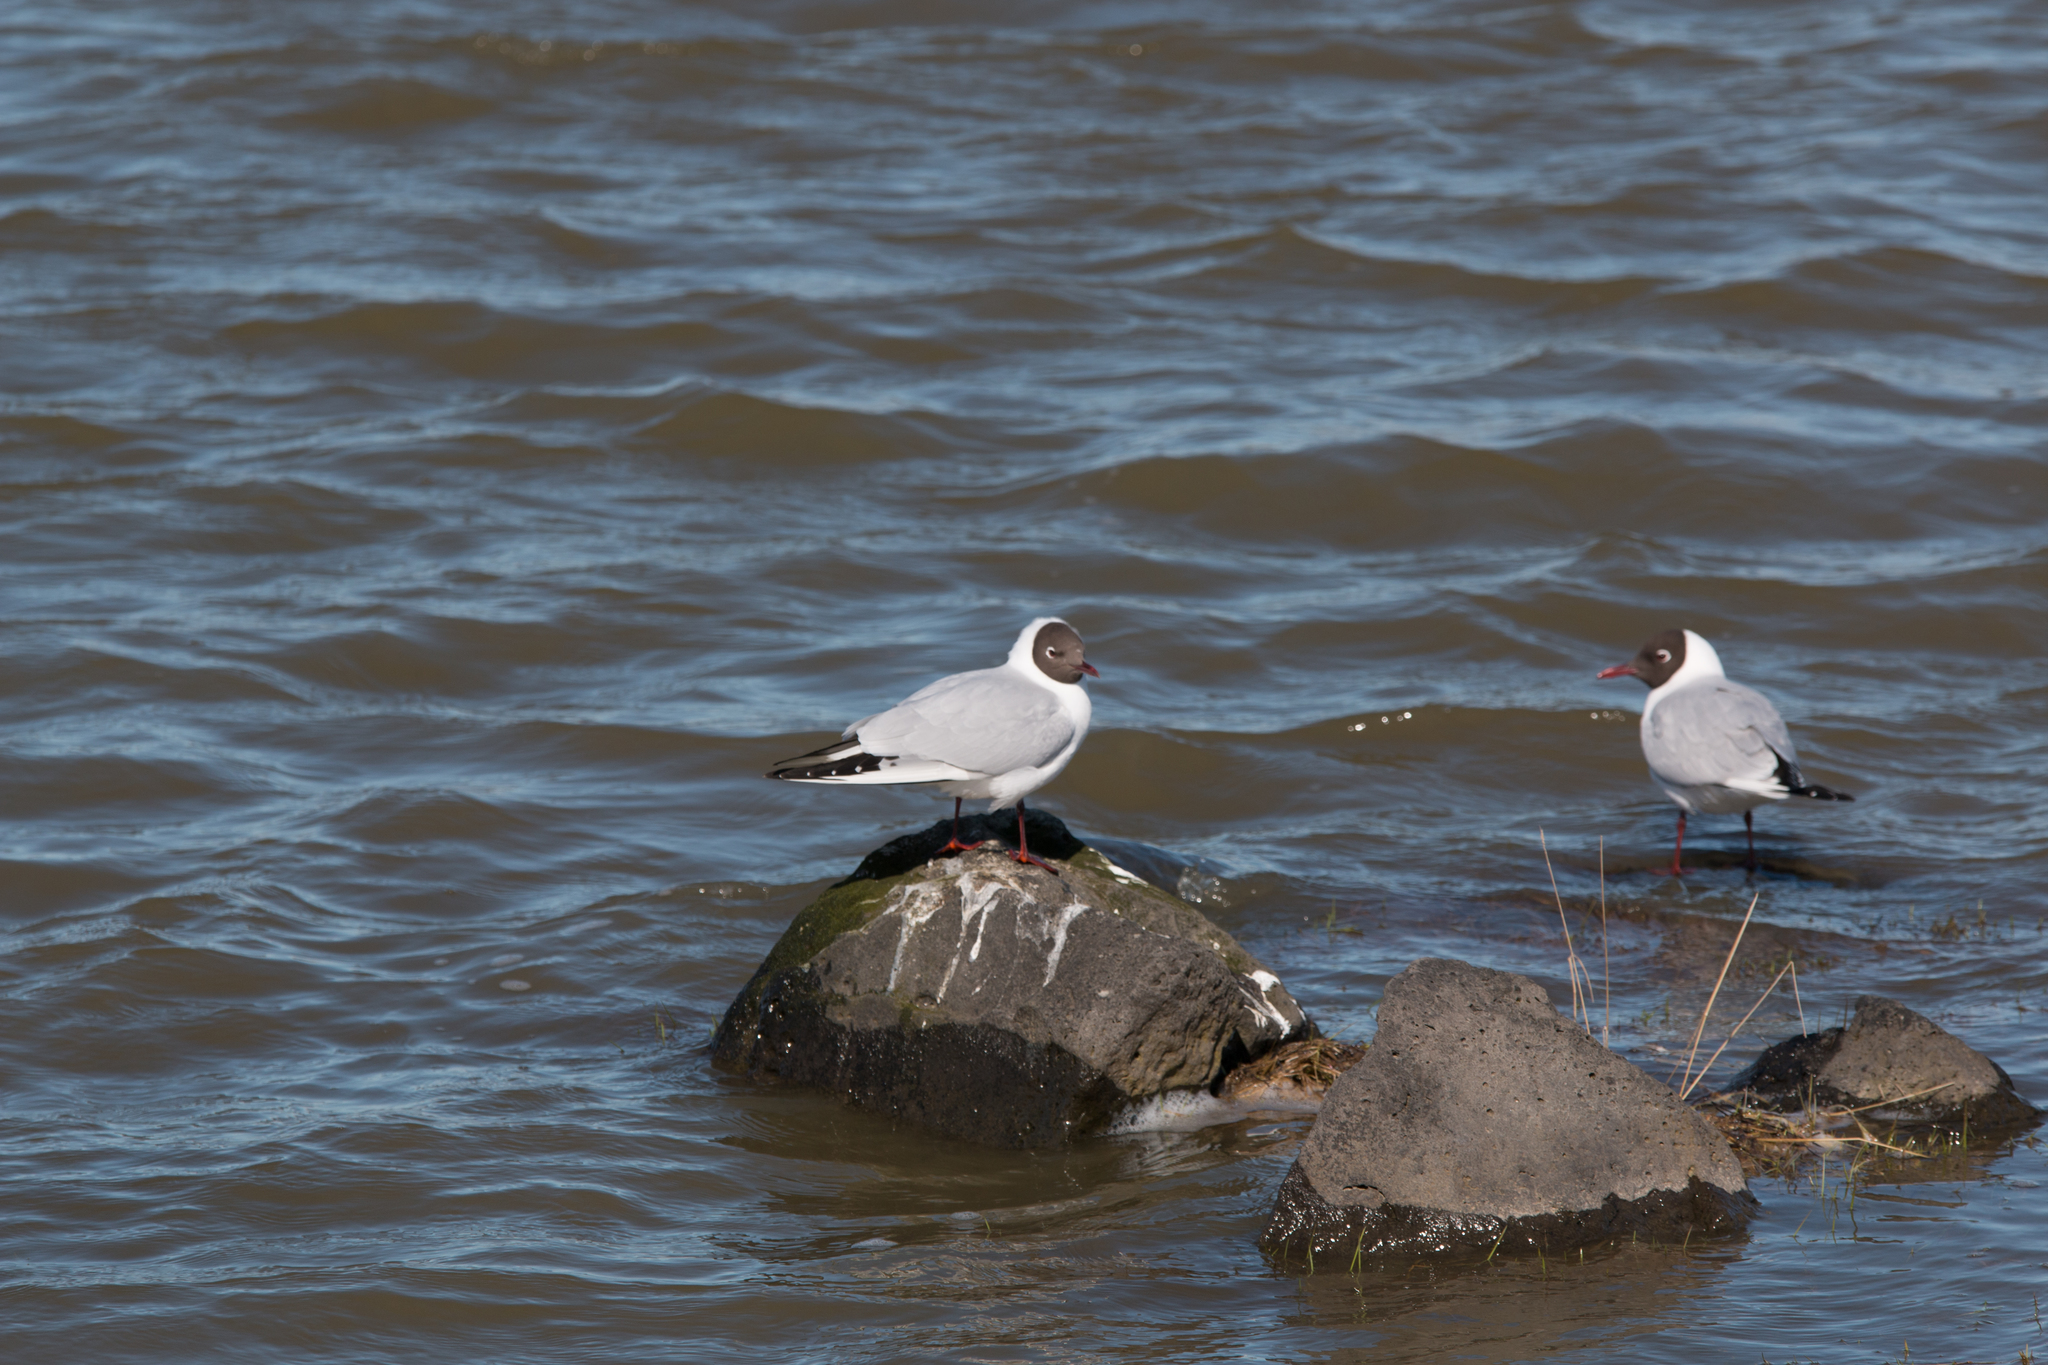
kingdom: Animalia
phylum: Chordata
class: Aves
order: Charadriiformes
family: Laridae
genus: Chroicocephalus
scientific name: Chroicocephalus ridibundus
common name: Black-headed gull
